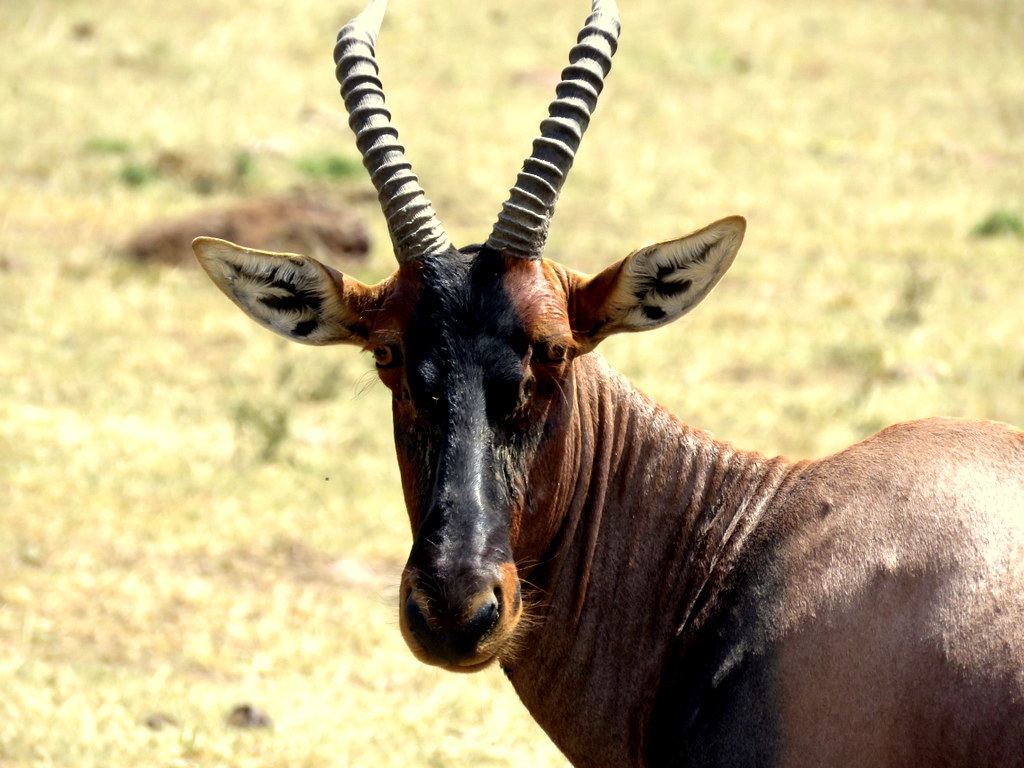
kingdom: Animalia
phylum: Chordata
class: Mammalia
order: Artiodactyla
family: Bovidae
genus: Damaliscus
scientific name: Damaliscus korrigum
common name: Topi
